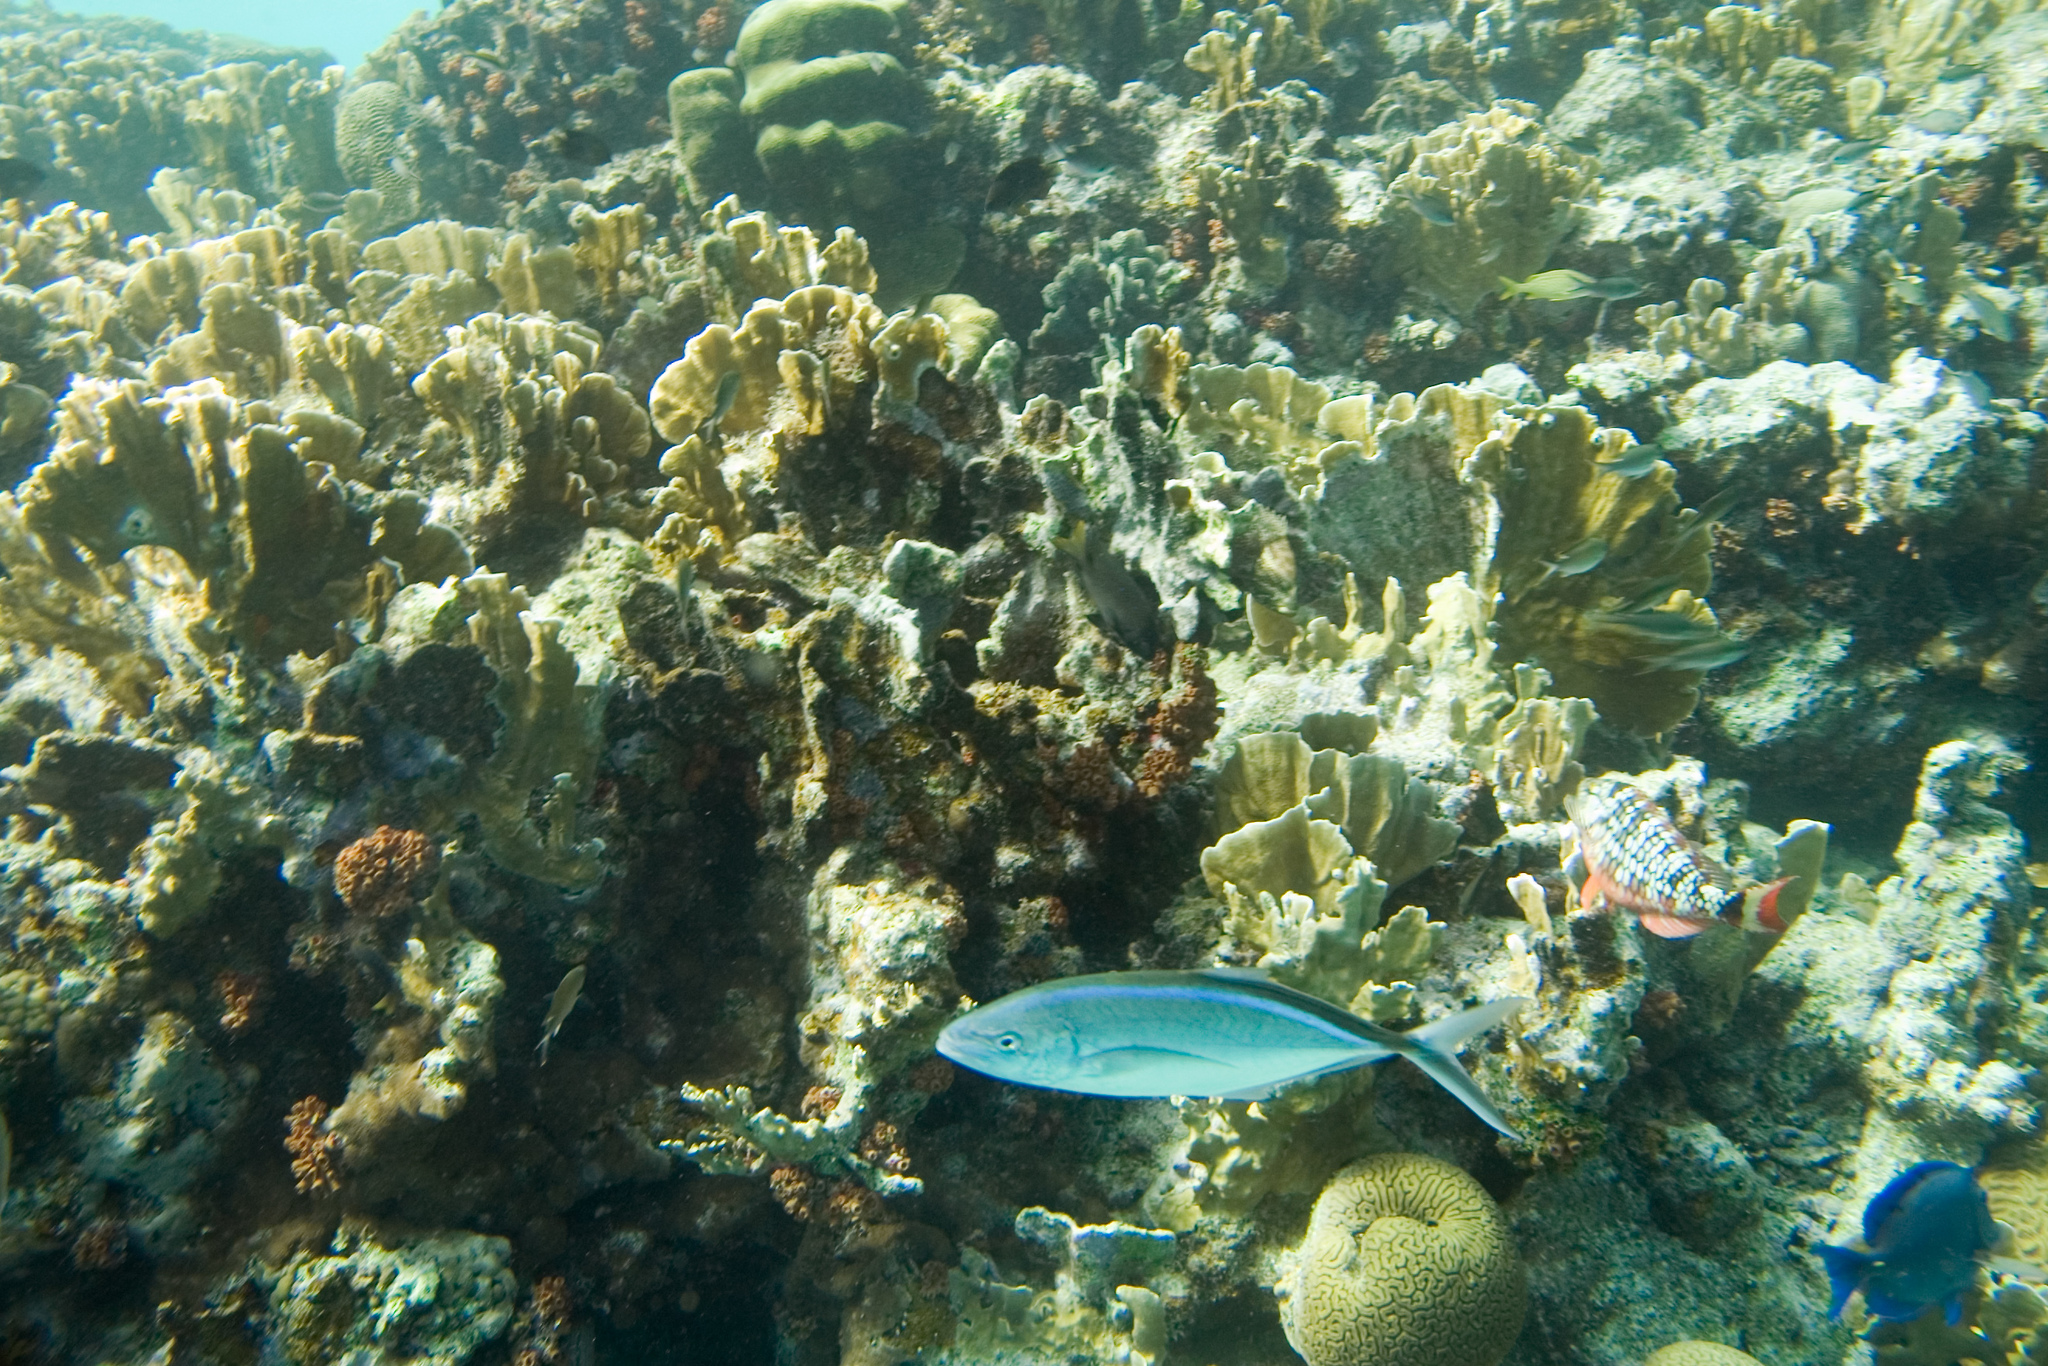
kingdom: Animalia
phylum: Chordata
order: Perciformes
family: Carangidae
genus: Caranx
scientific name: Caranx ruber
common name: Bar jack
